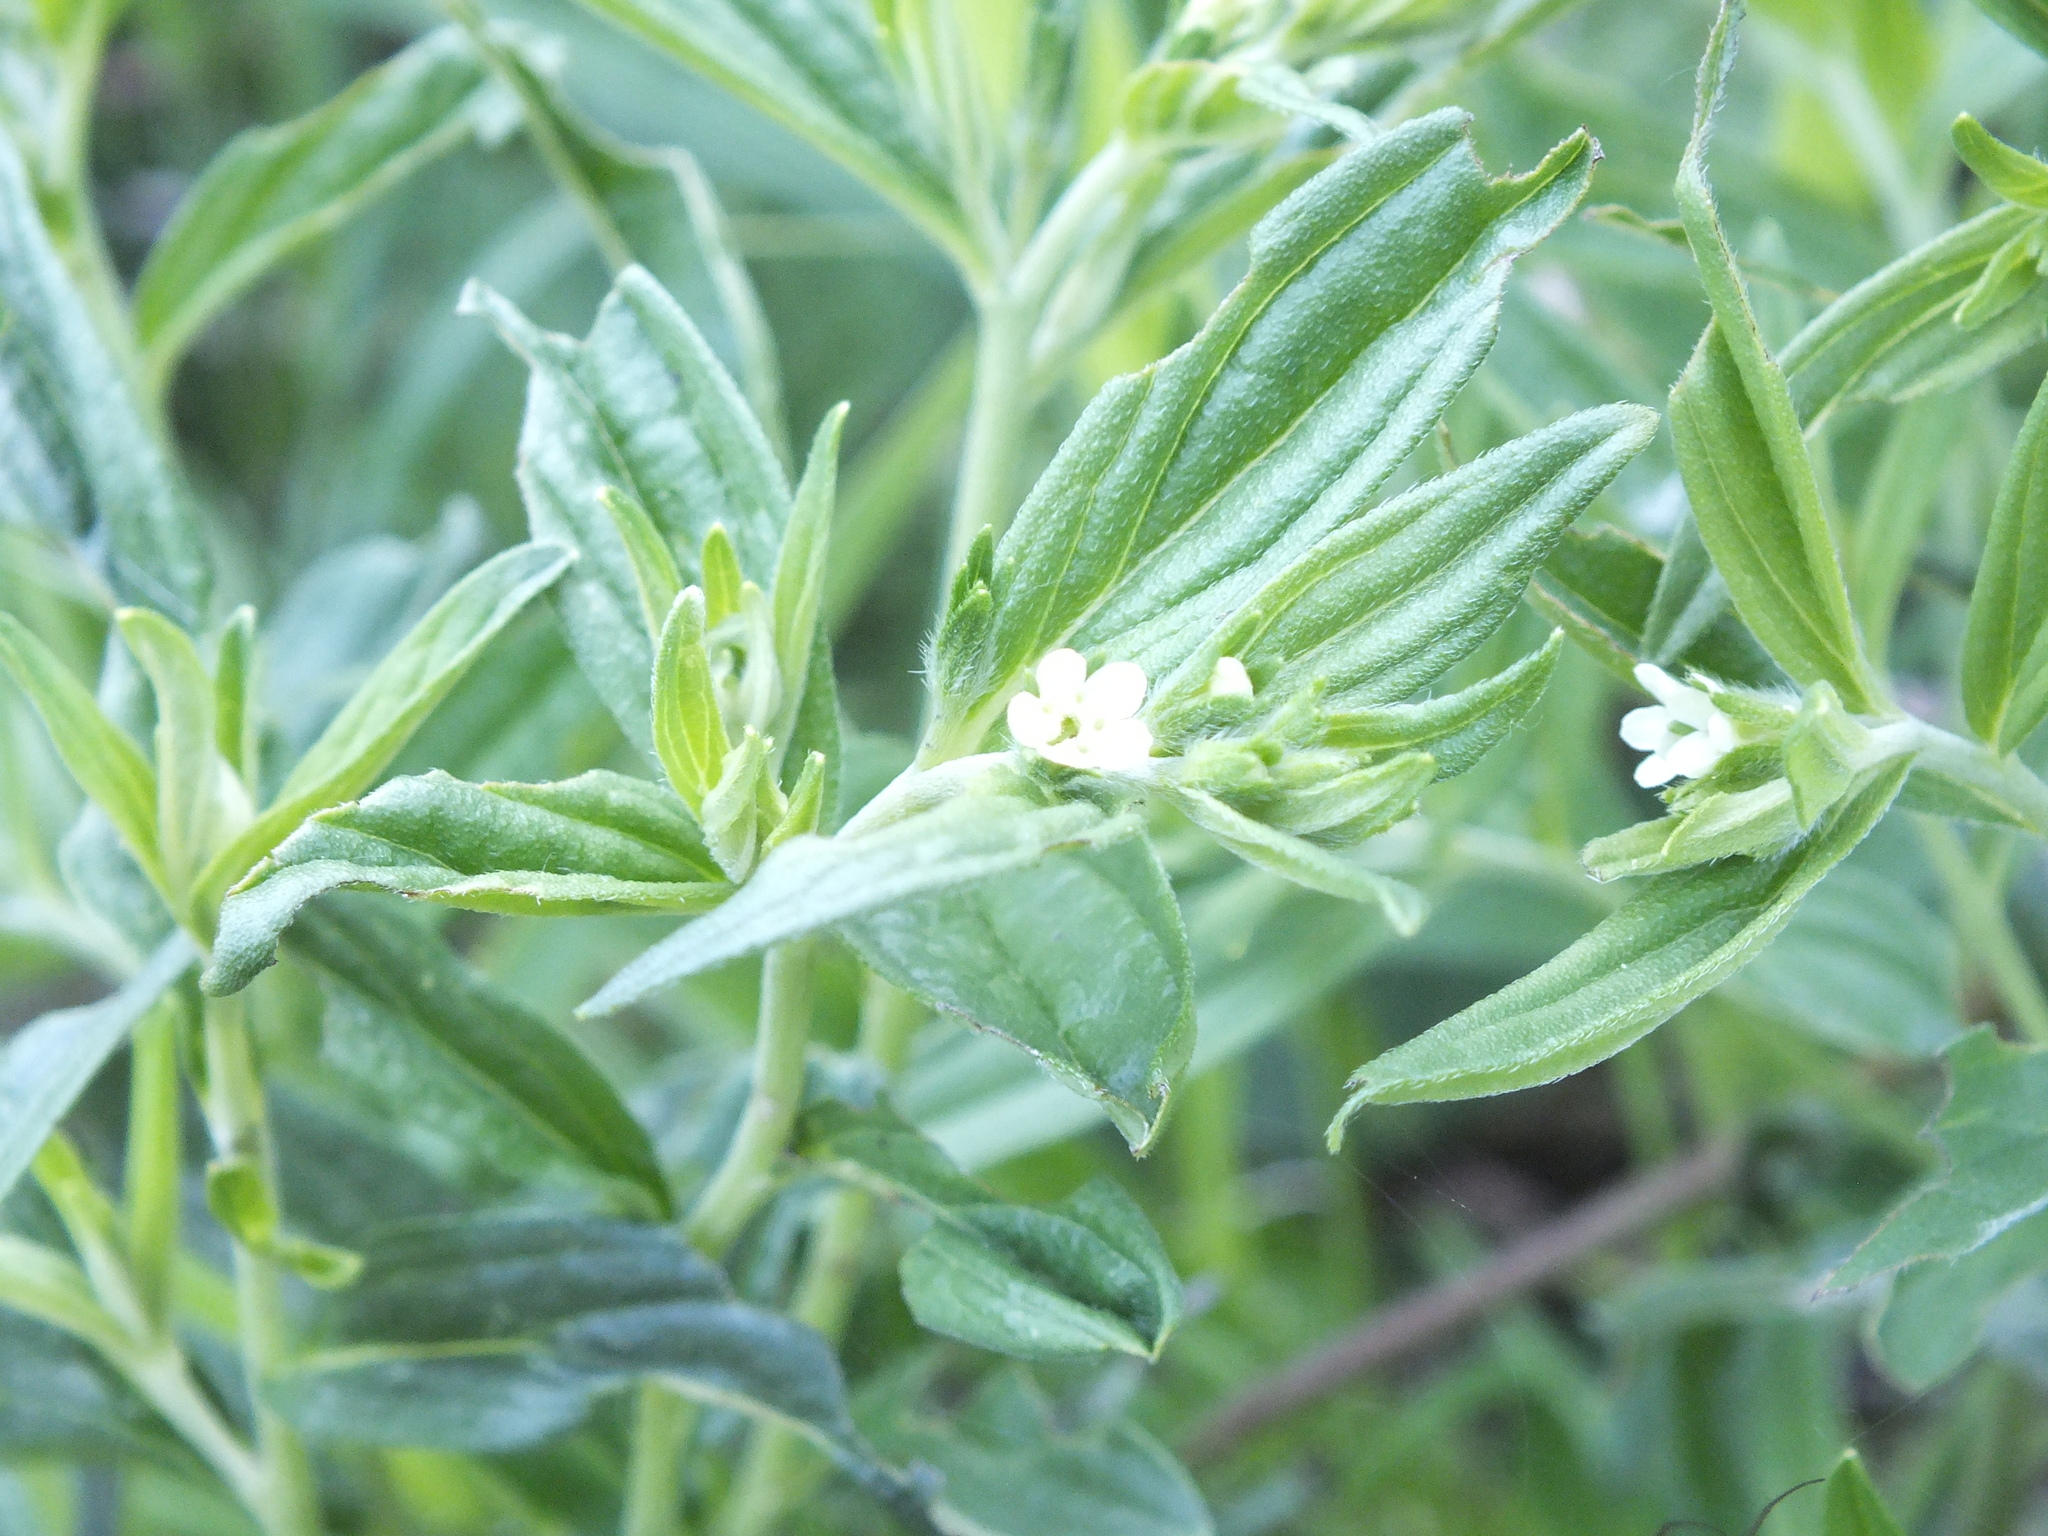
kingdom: Plantae
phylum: Tracheophyta
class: Magnoliopsida
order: Boraginales
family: Boraginaceae
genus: Lithospermum
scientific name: Lithospermum officinale
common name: Common gromwell
